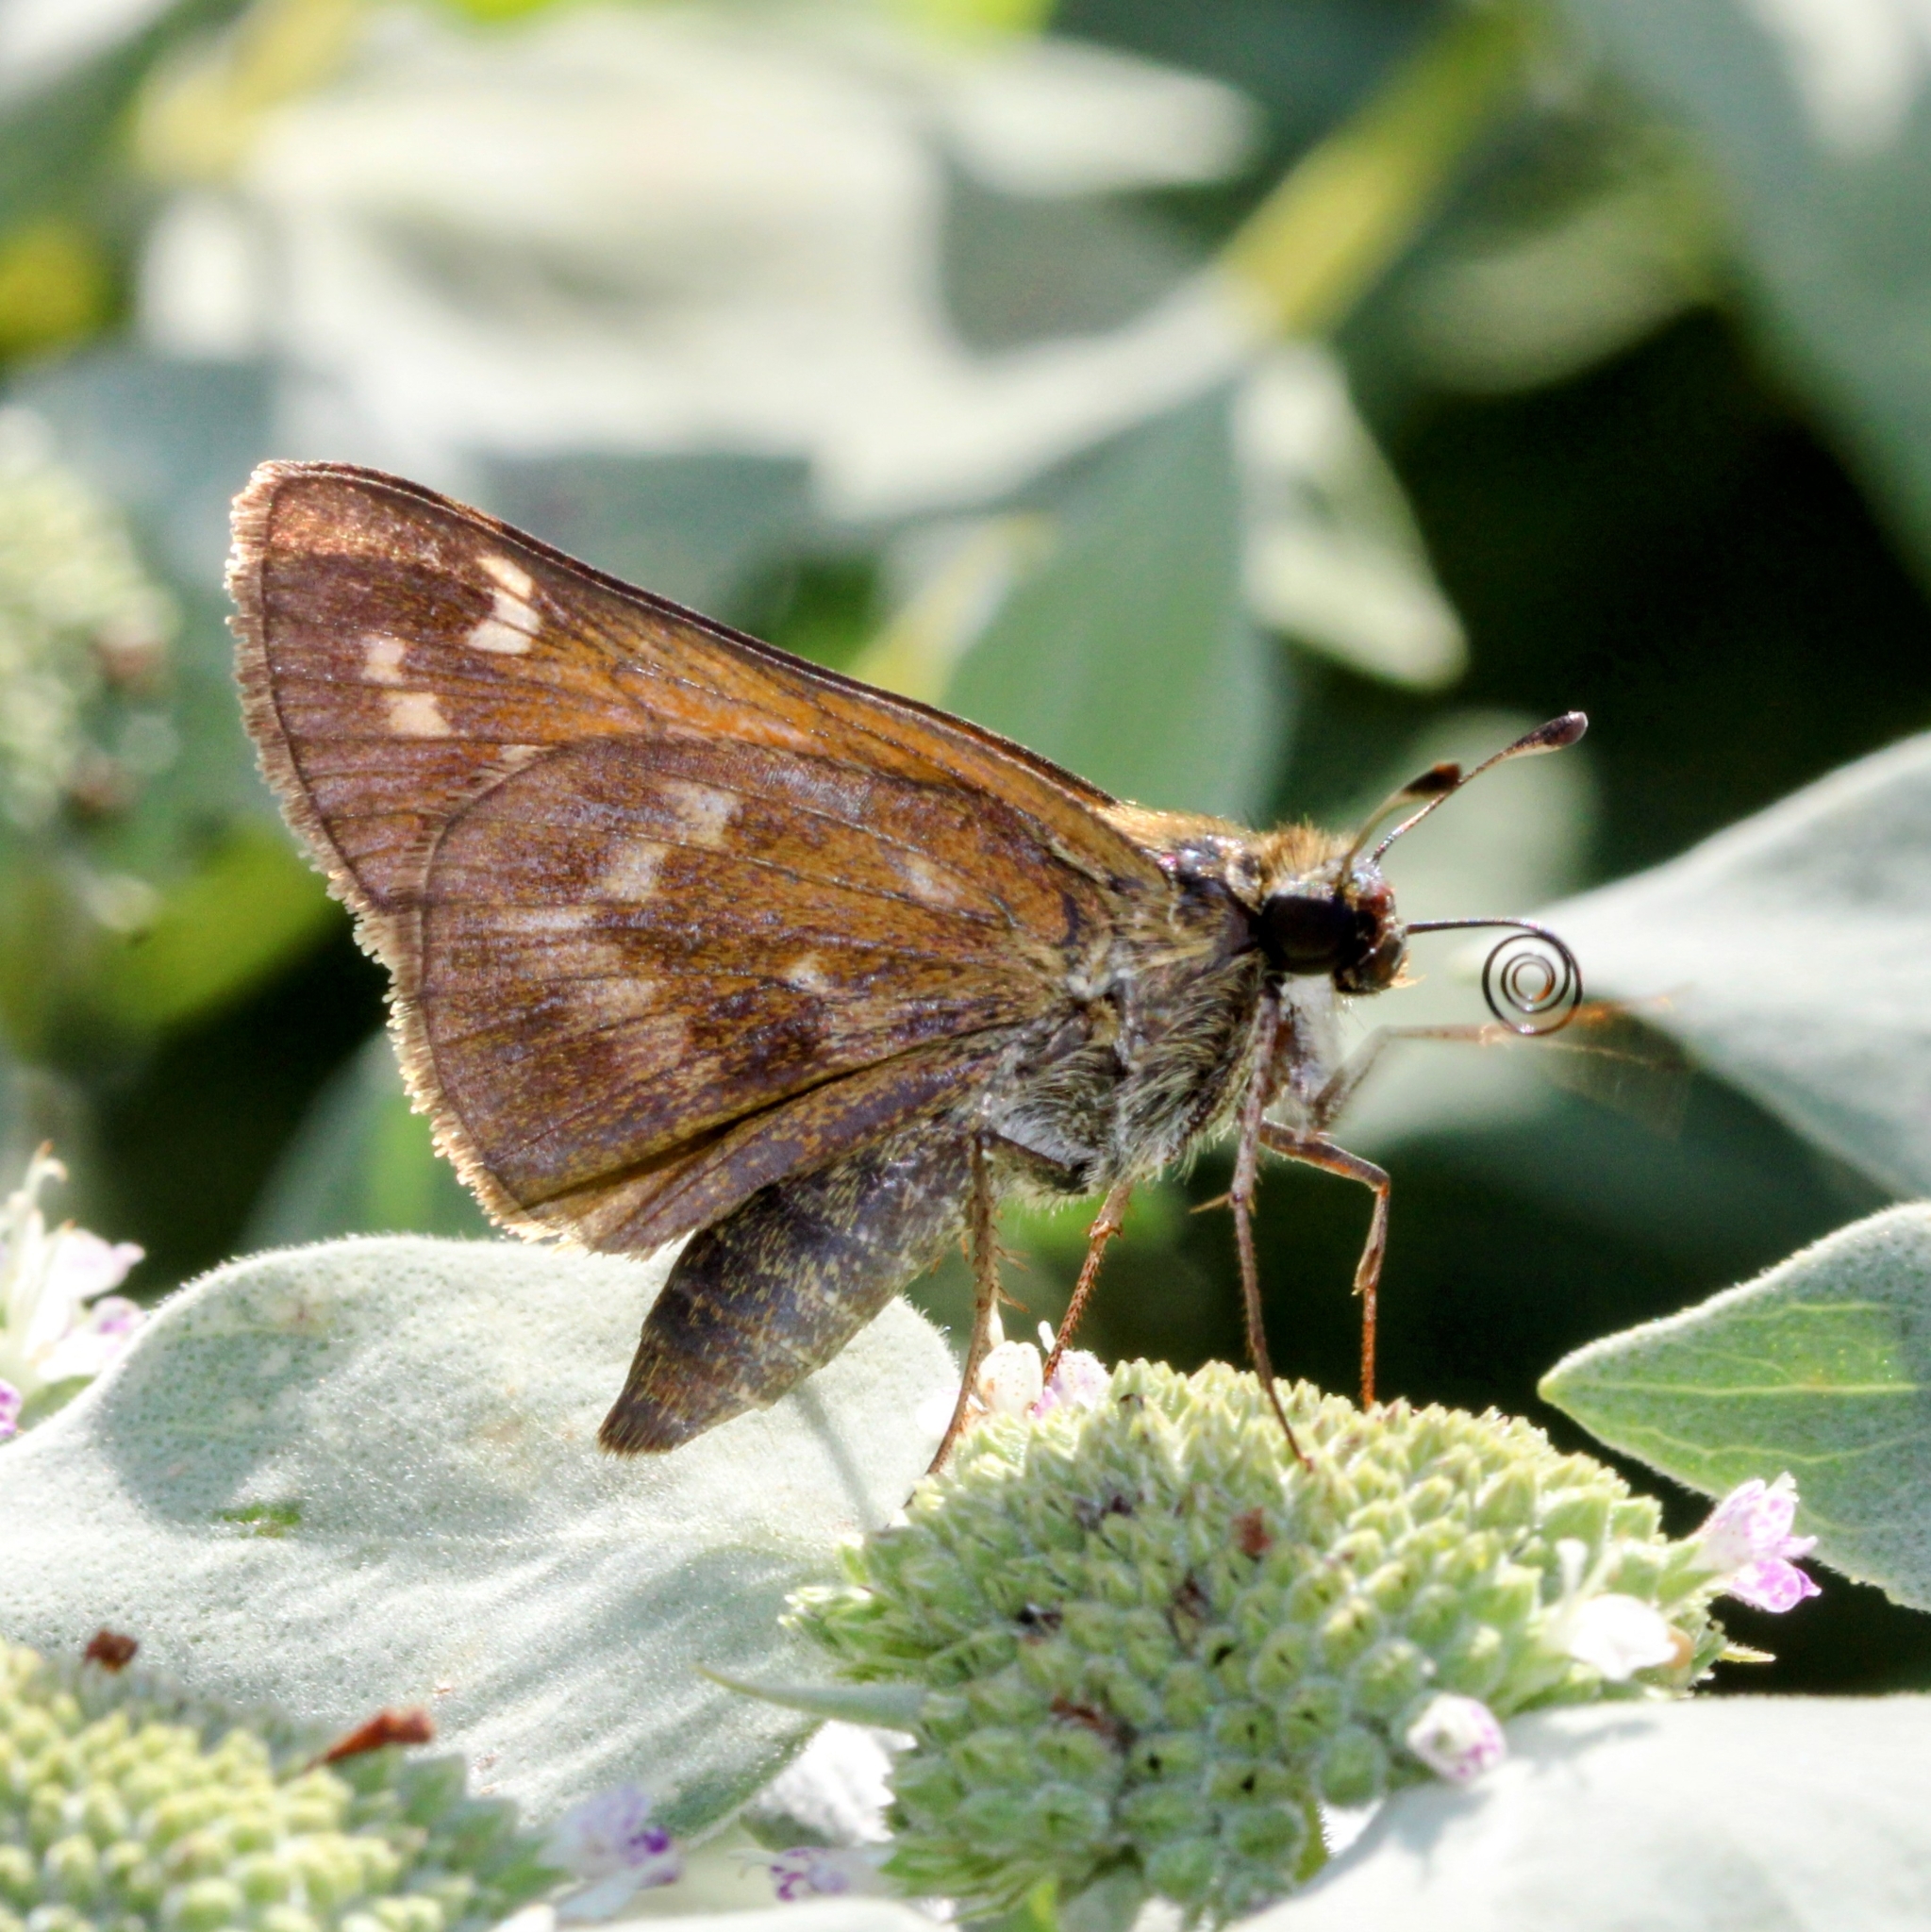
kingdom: Animalia
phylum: Arthropoda
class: Insecta
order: Lepidoptera
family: Hesperiidae
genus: Atalopedes
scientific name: Atalopedes
